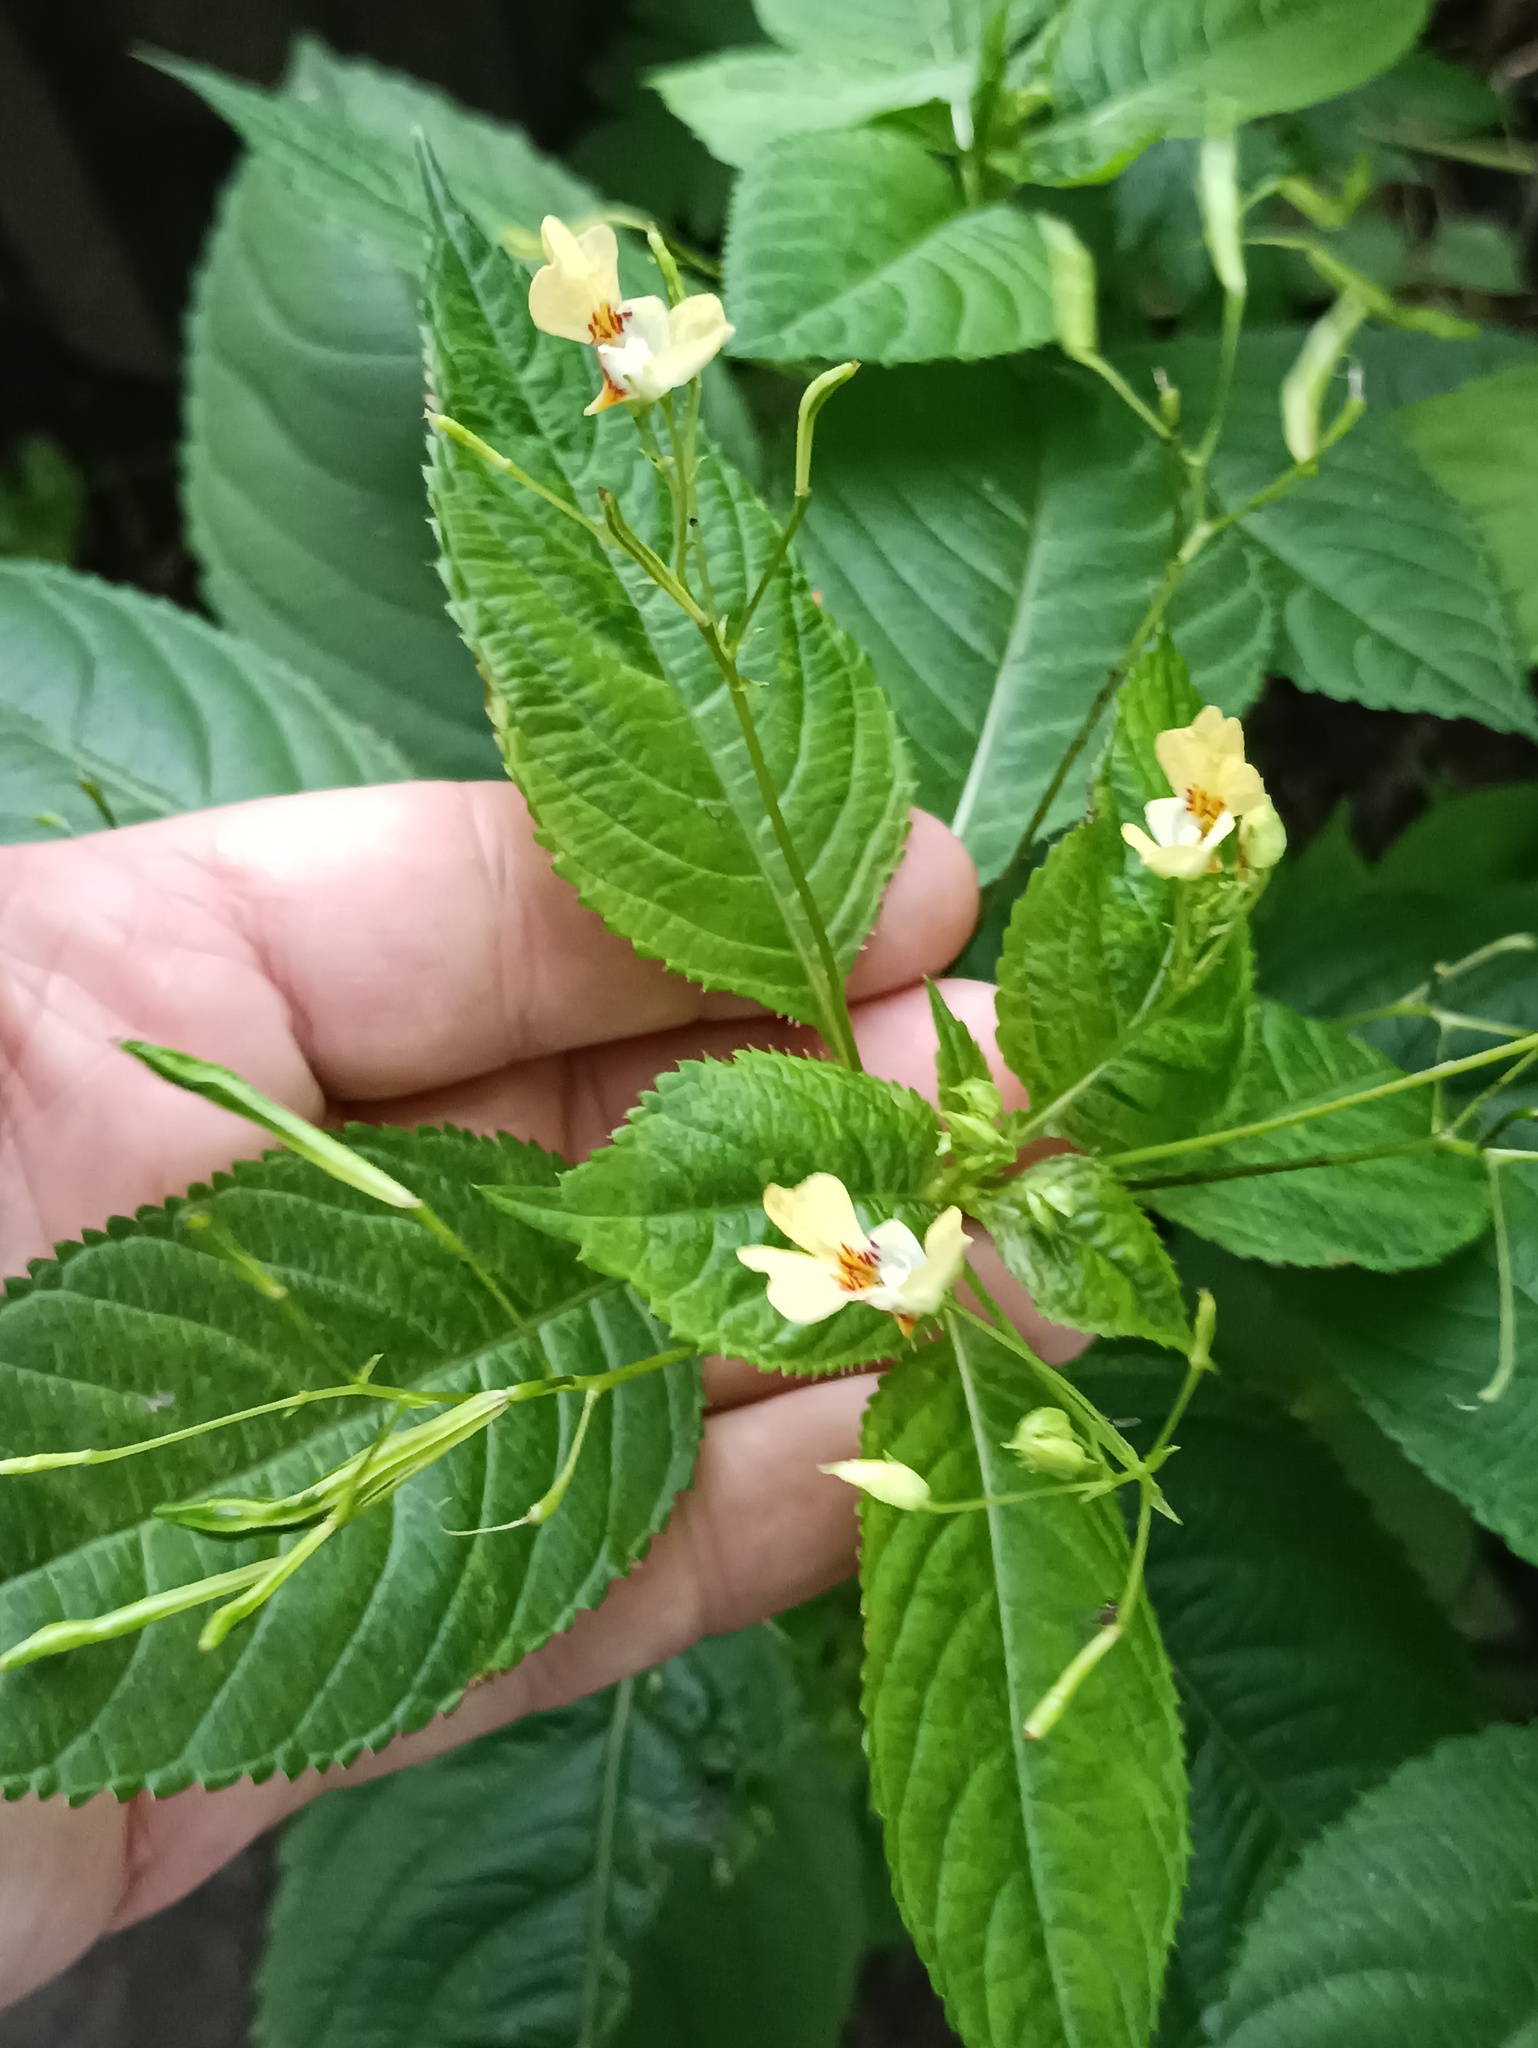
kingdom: Plantae
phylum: Tracheophyta
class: Magnoliopsida
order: Ericales
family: Balsaminaceae
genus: Impatiens
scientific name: Impatiens parviflora
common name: Small balsam
